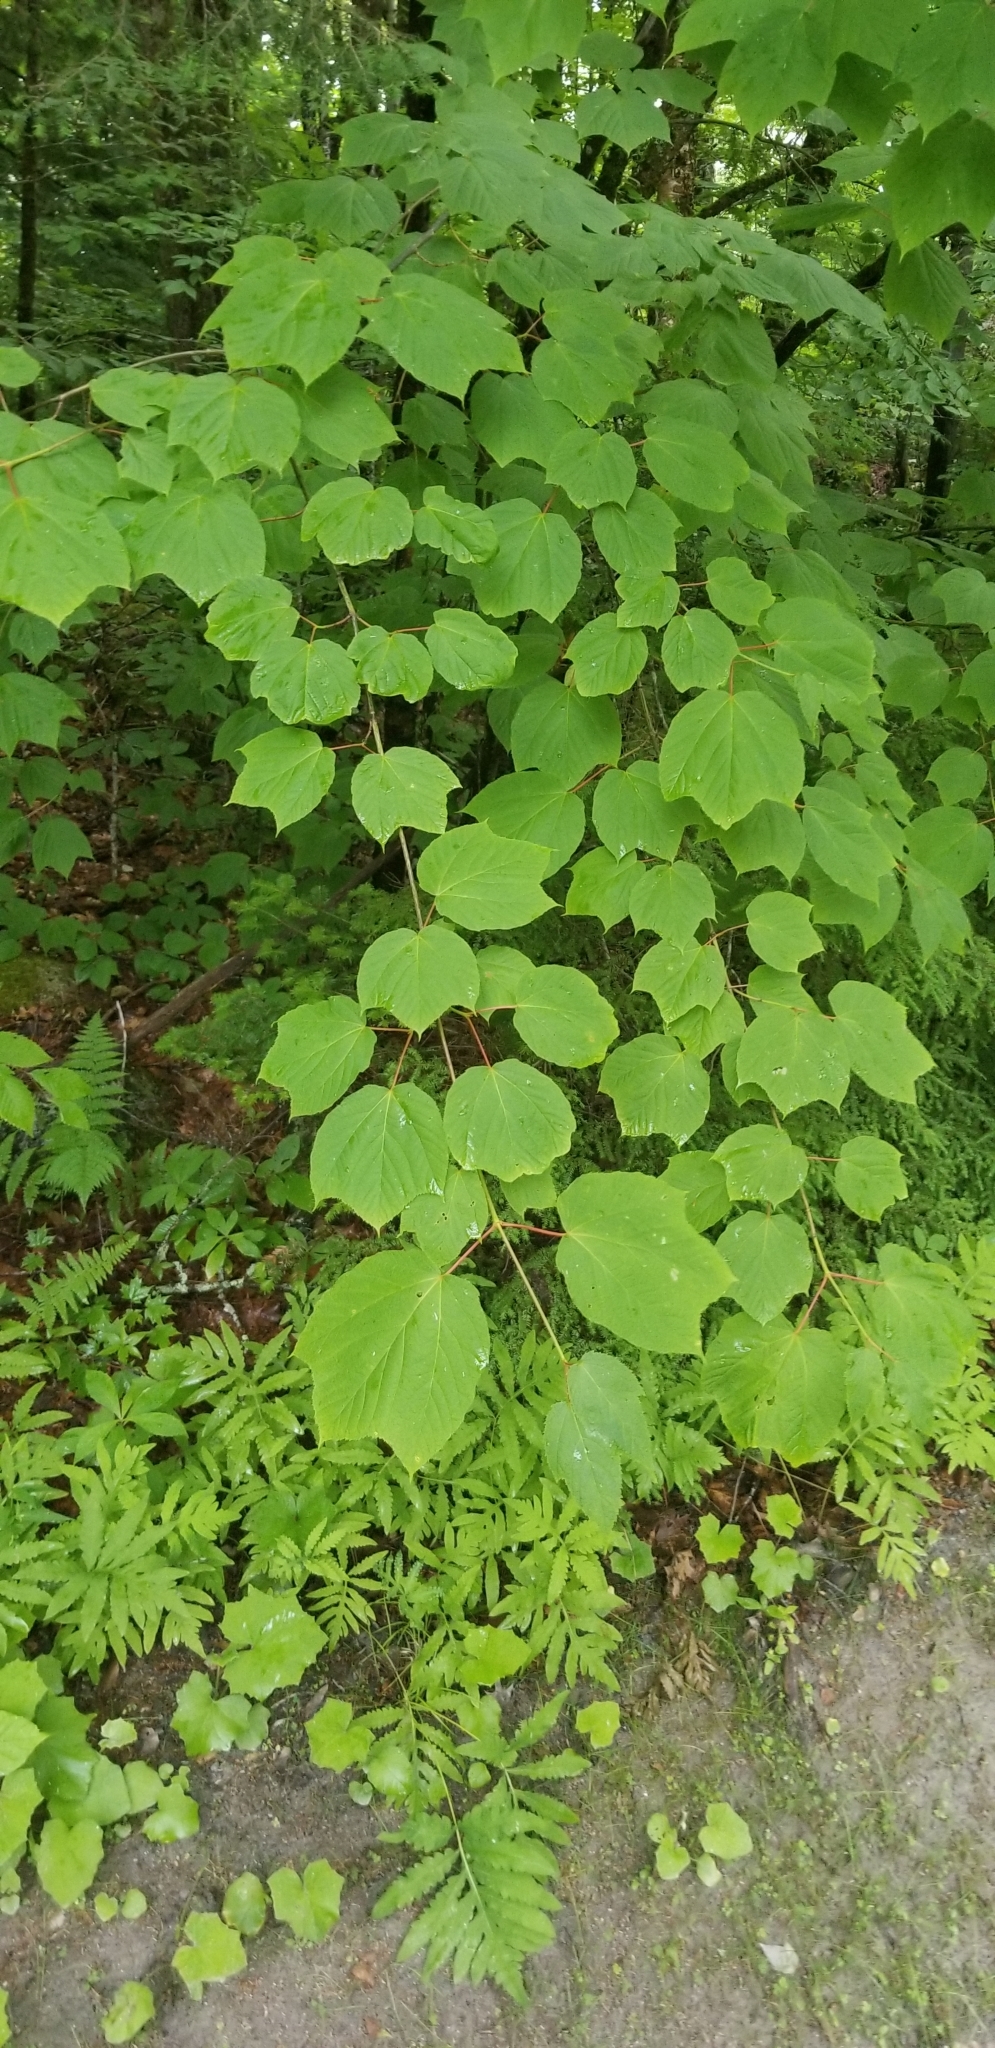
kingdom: Plantae
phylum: Tracheophyta
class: Magnoliopsida
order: Sapindales
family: Sapindaceae
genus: Acer
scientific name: Acer pensylvanicum
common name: Moosewood
